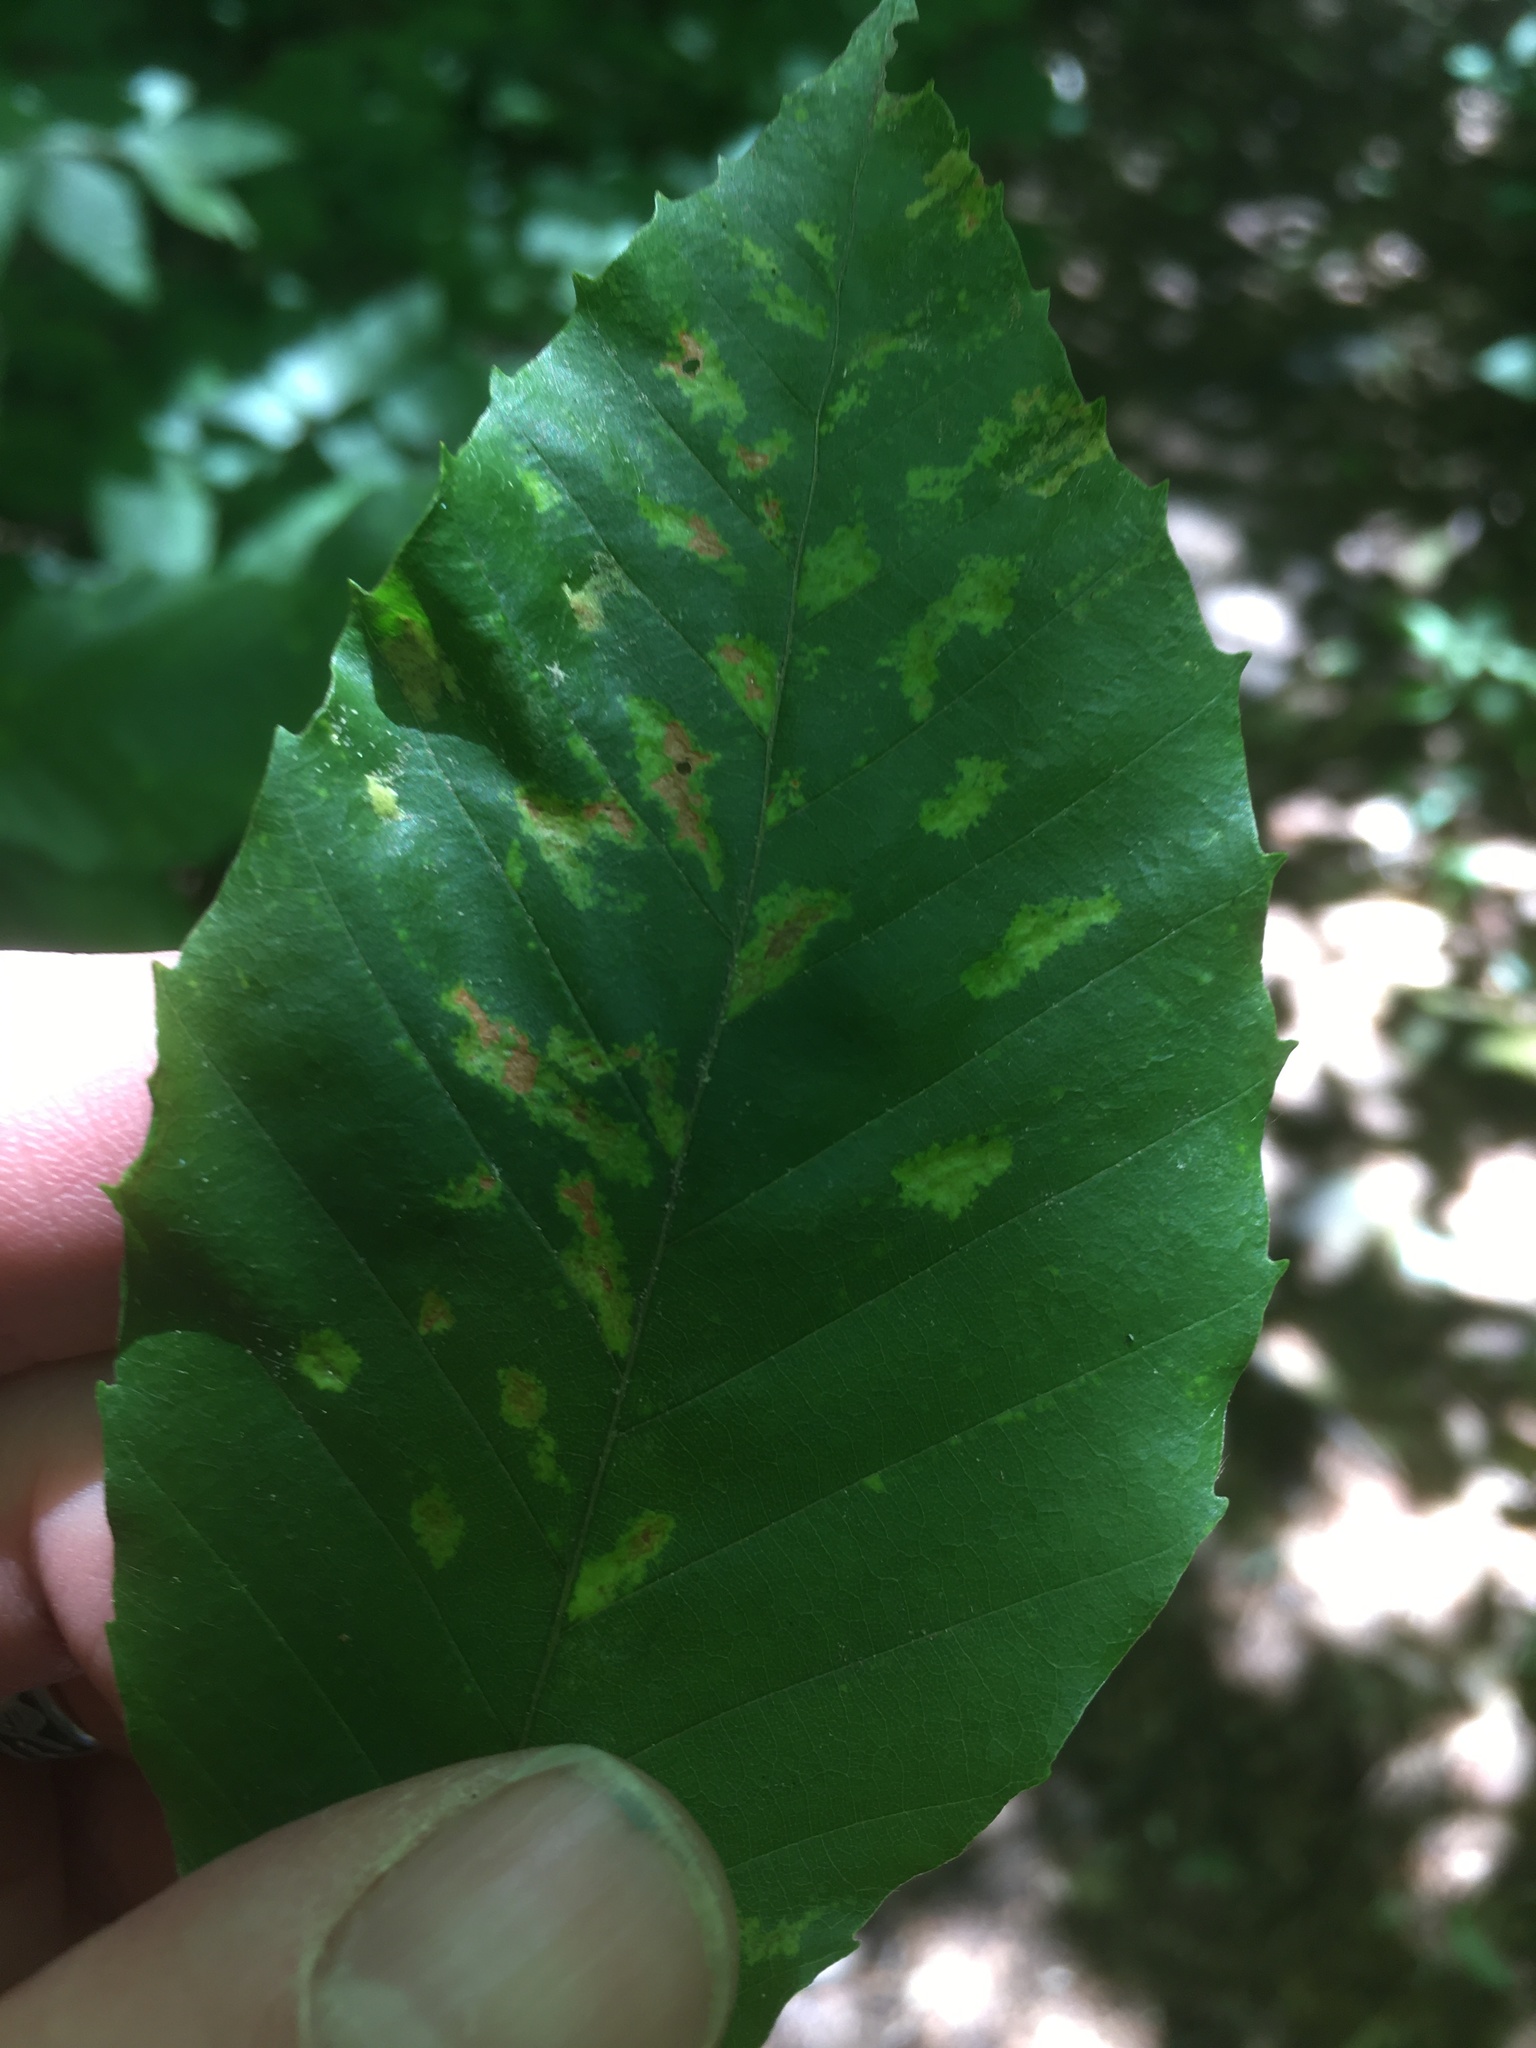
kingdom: Animalia
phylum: Arthropoda
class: Arachnida
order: Trombidiformes
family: Eriophyidae
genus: Acalitus
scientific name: Acalitus
